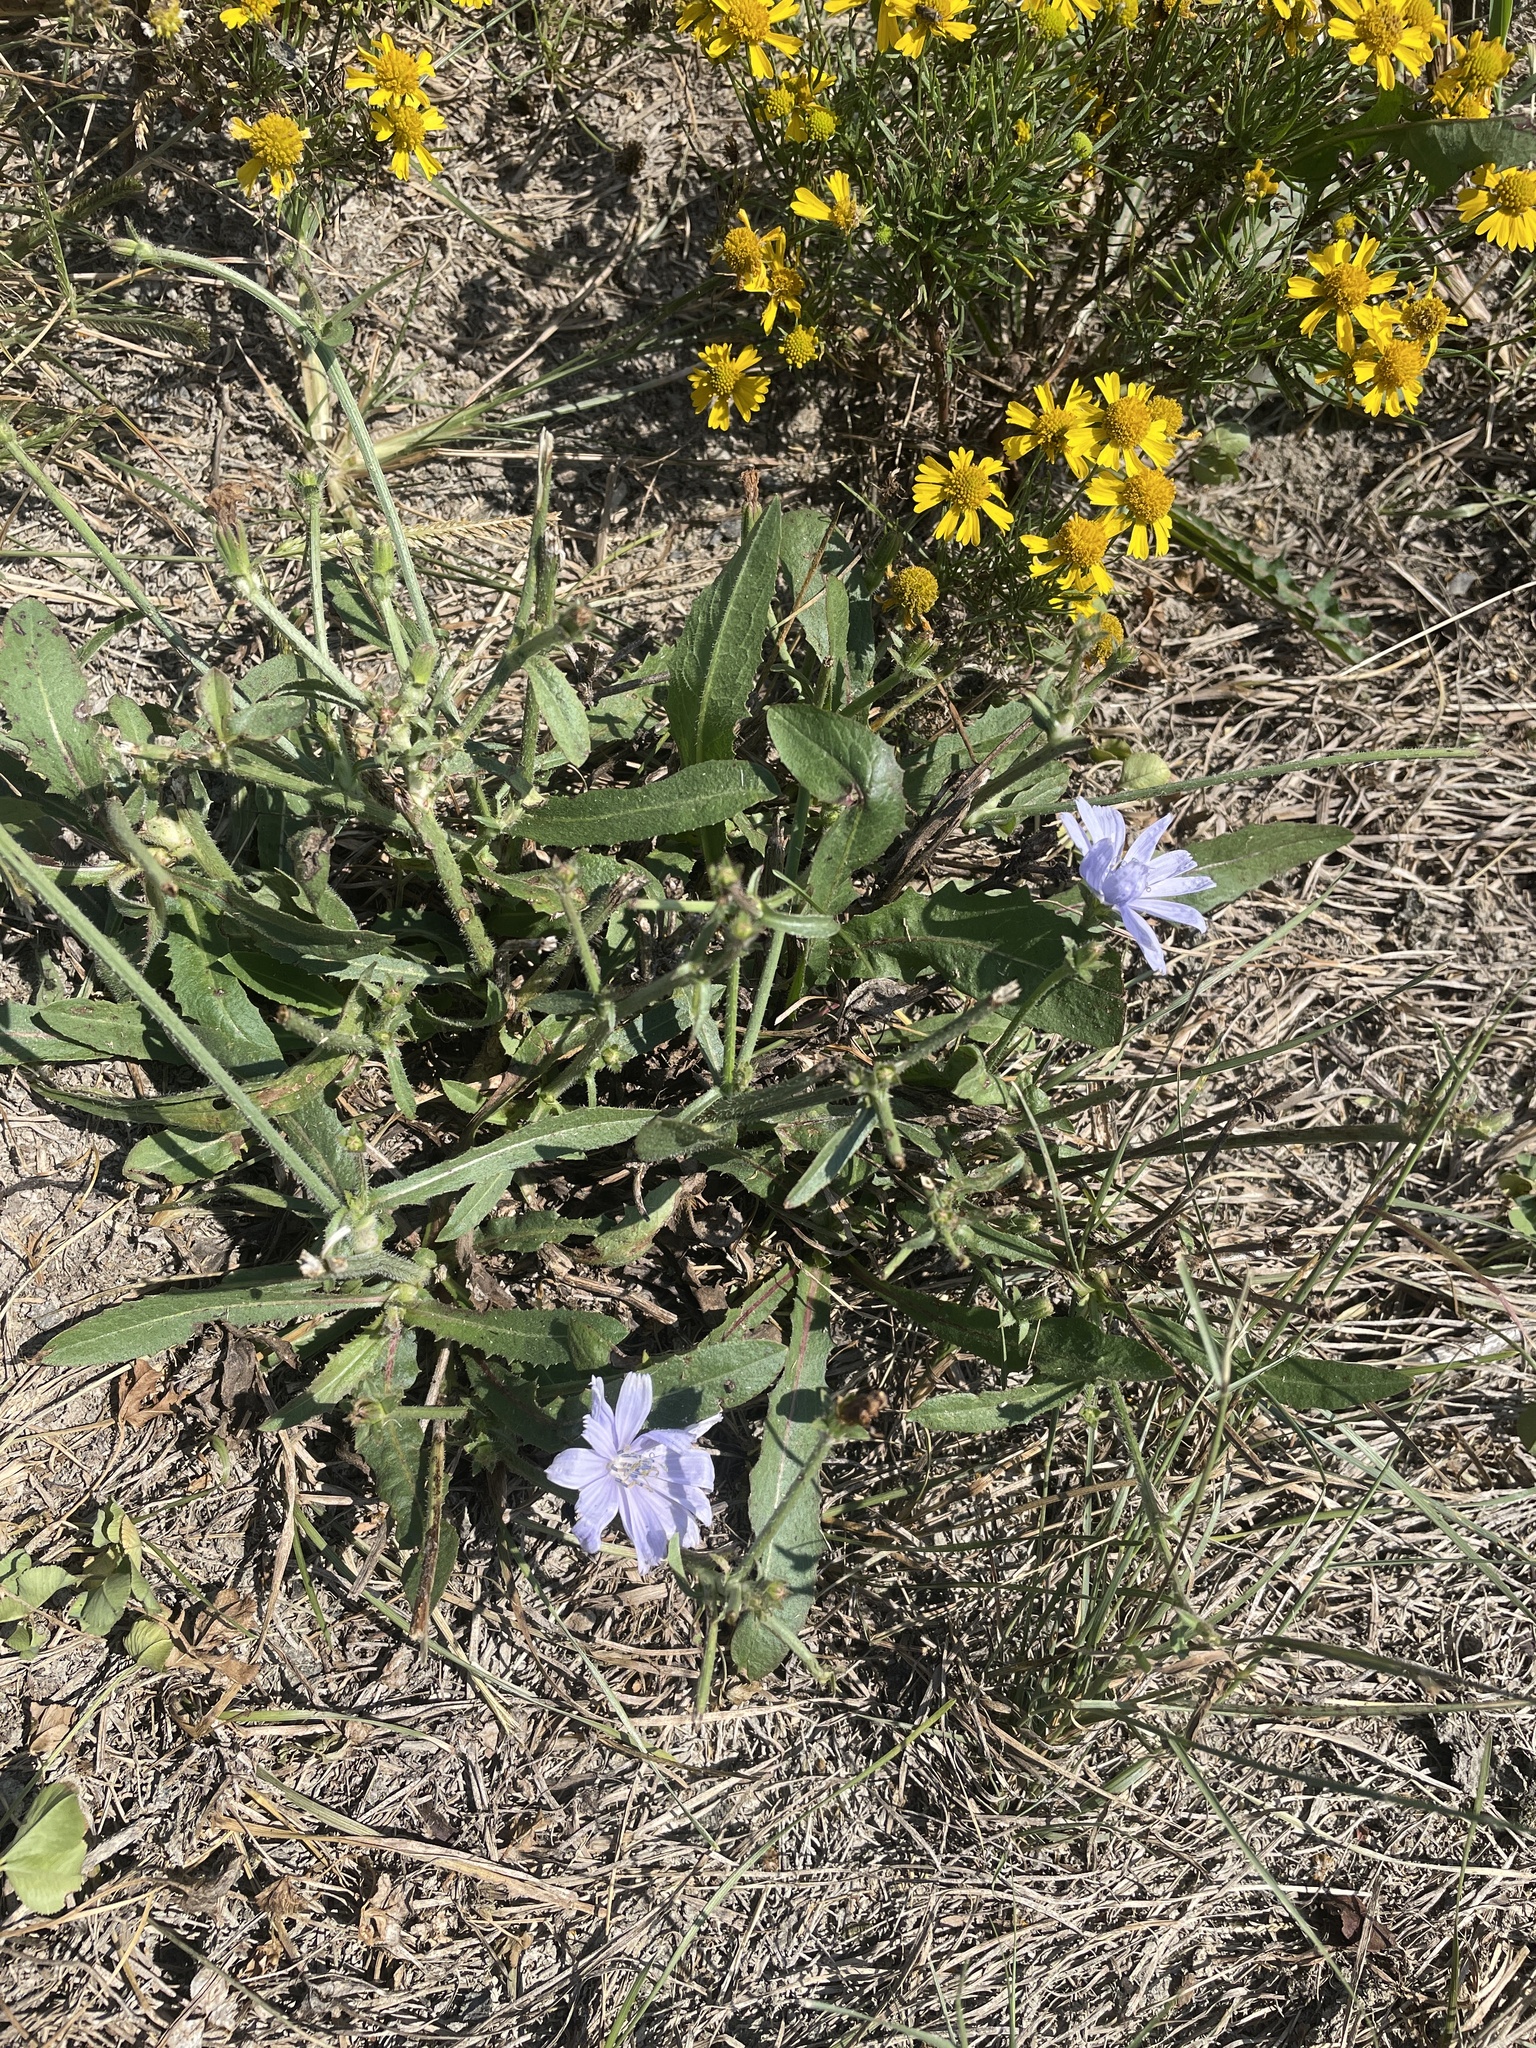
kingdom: Plantae
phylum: Tracheophyta
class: Magnoliopsida
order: Asterales
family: Asteraceae
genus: Cichorium
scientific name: Cichorium intybus
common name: Chicory
